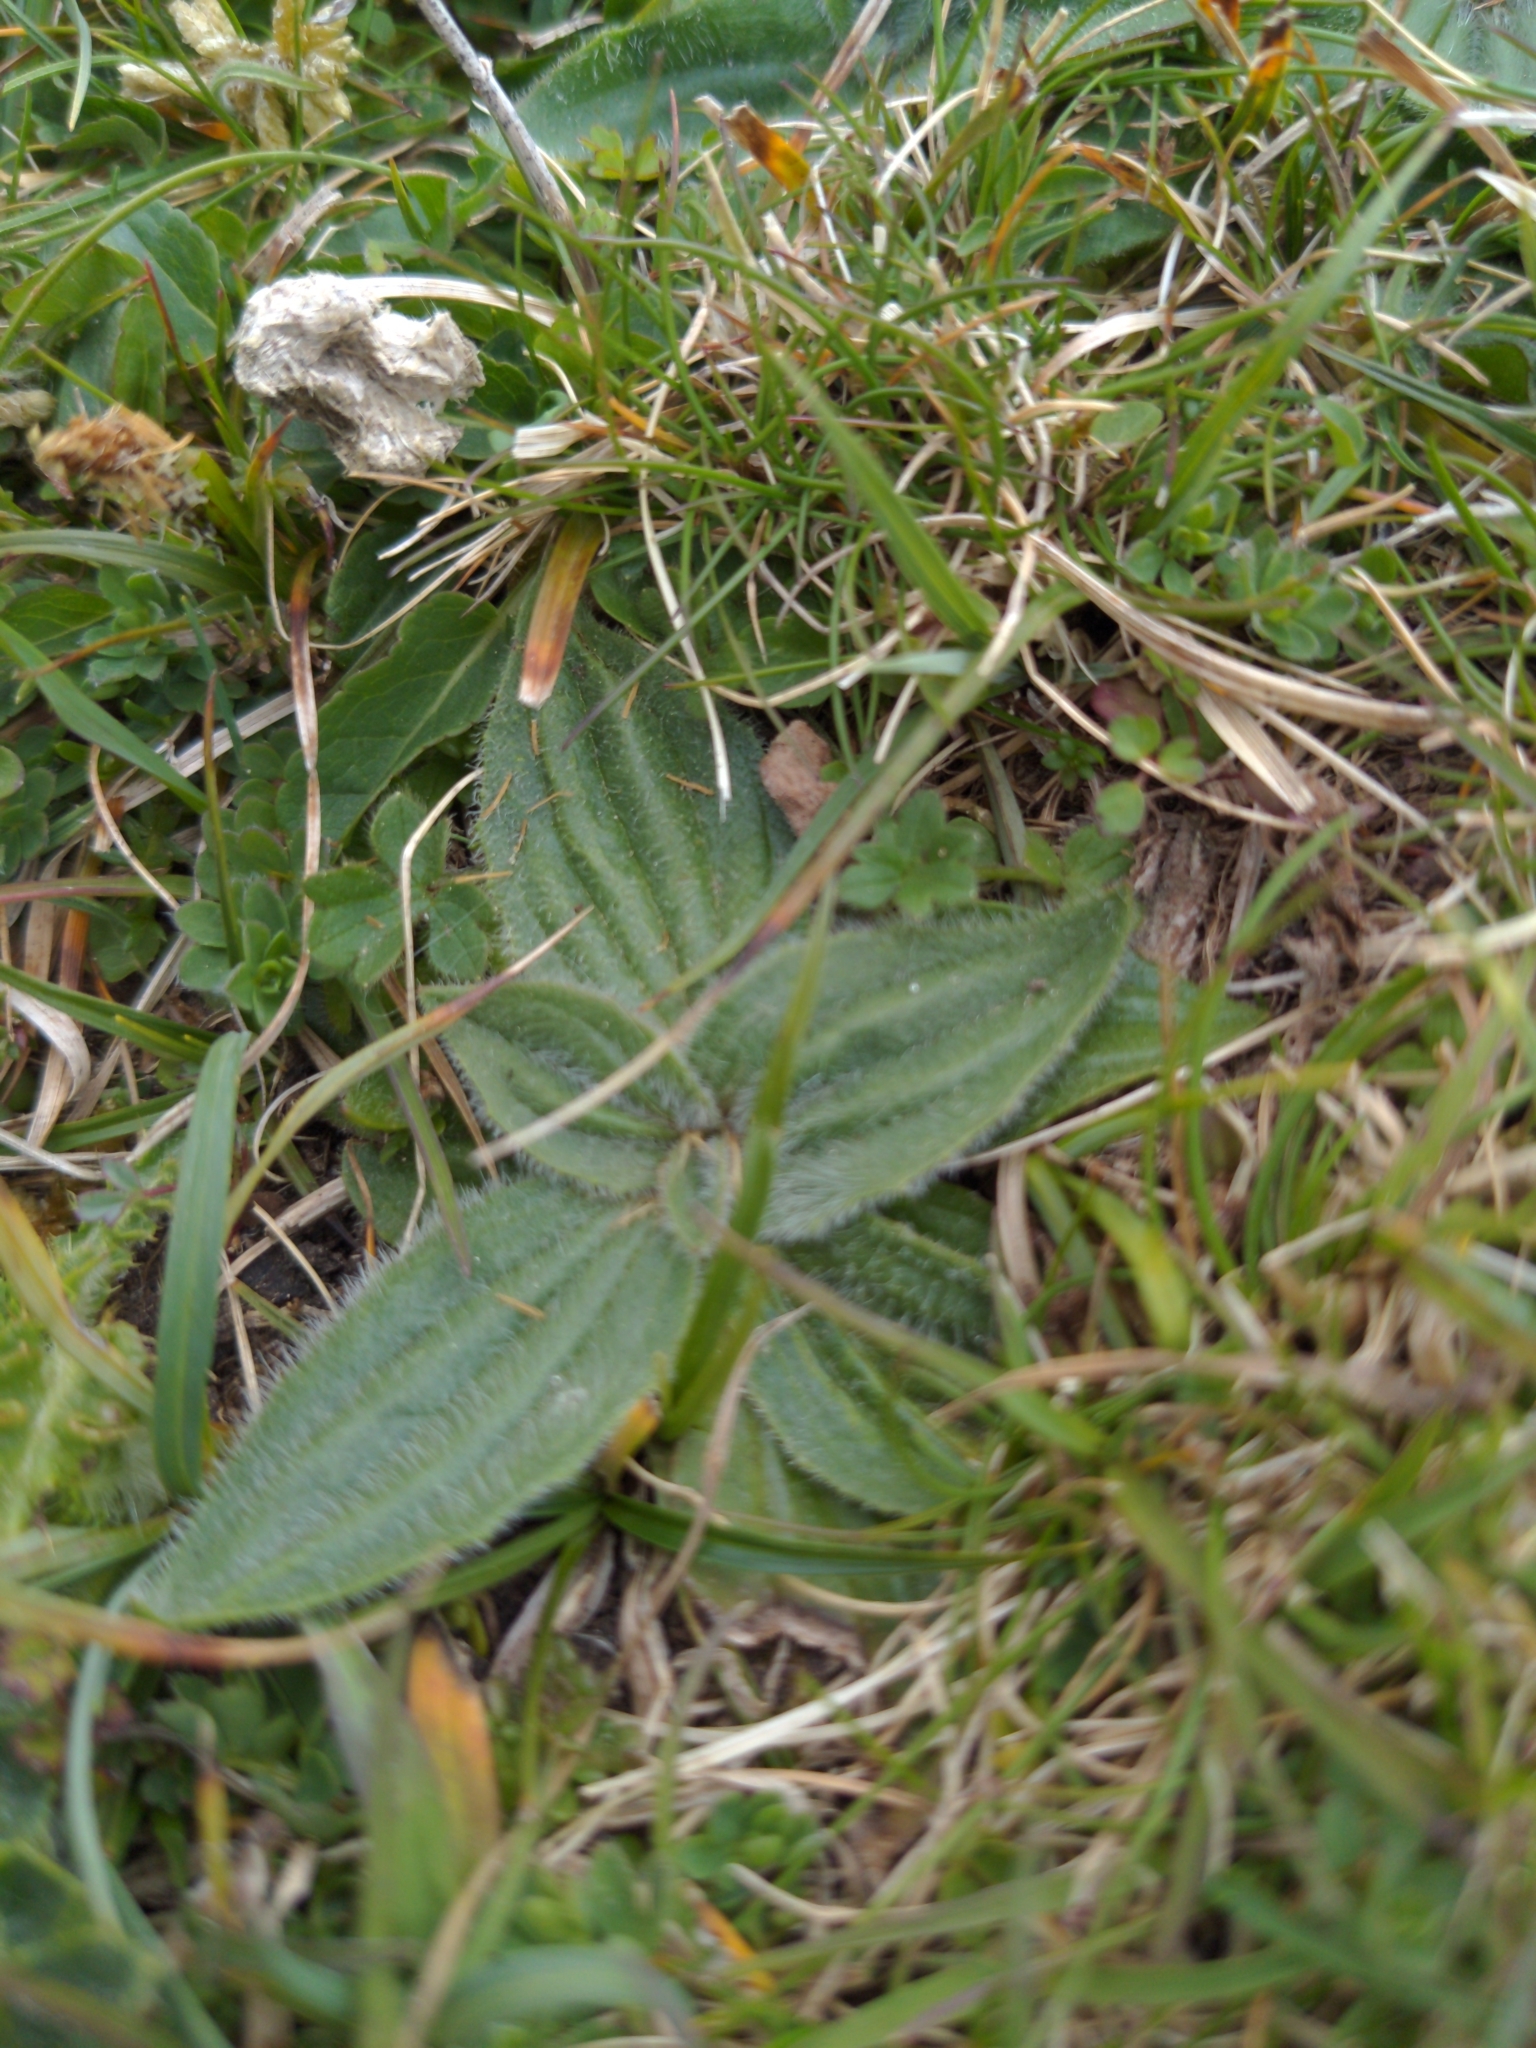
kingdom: Plantae
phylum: Tracheophyta
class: Magnoliopsida
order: Lamiales
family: Plantaginaceae
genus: Plantago
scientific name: Plantago media
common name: Hoary plantain
